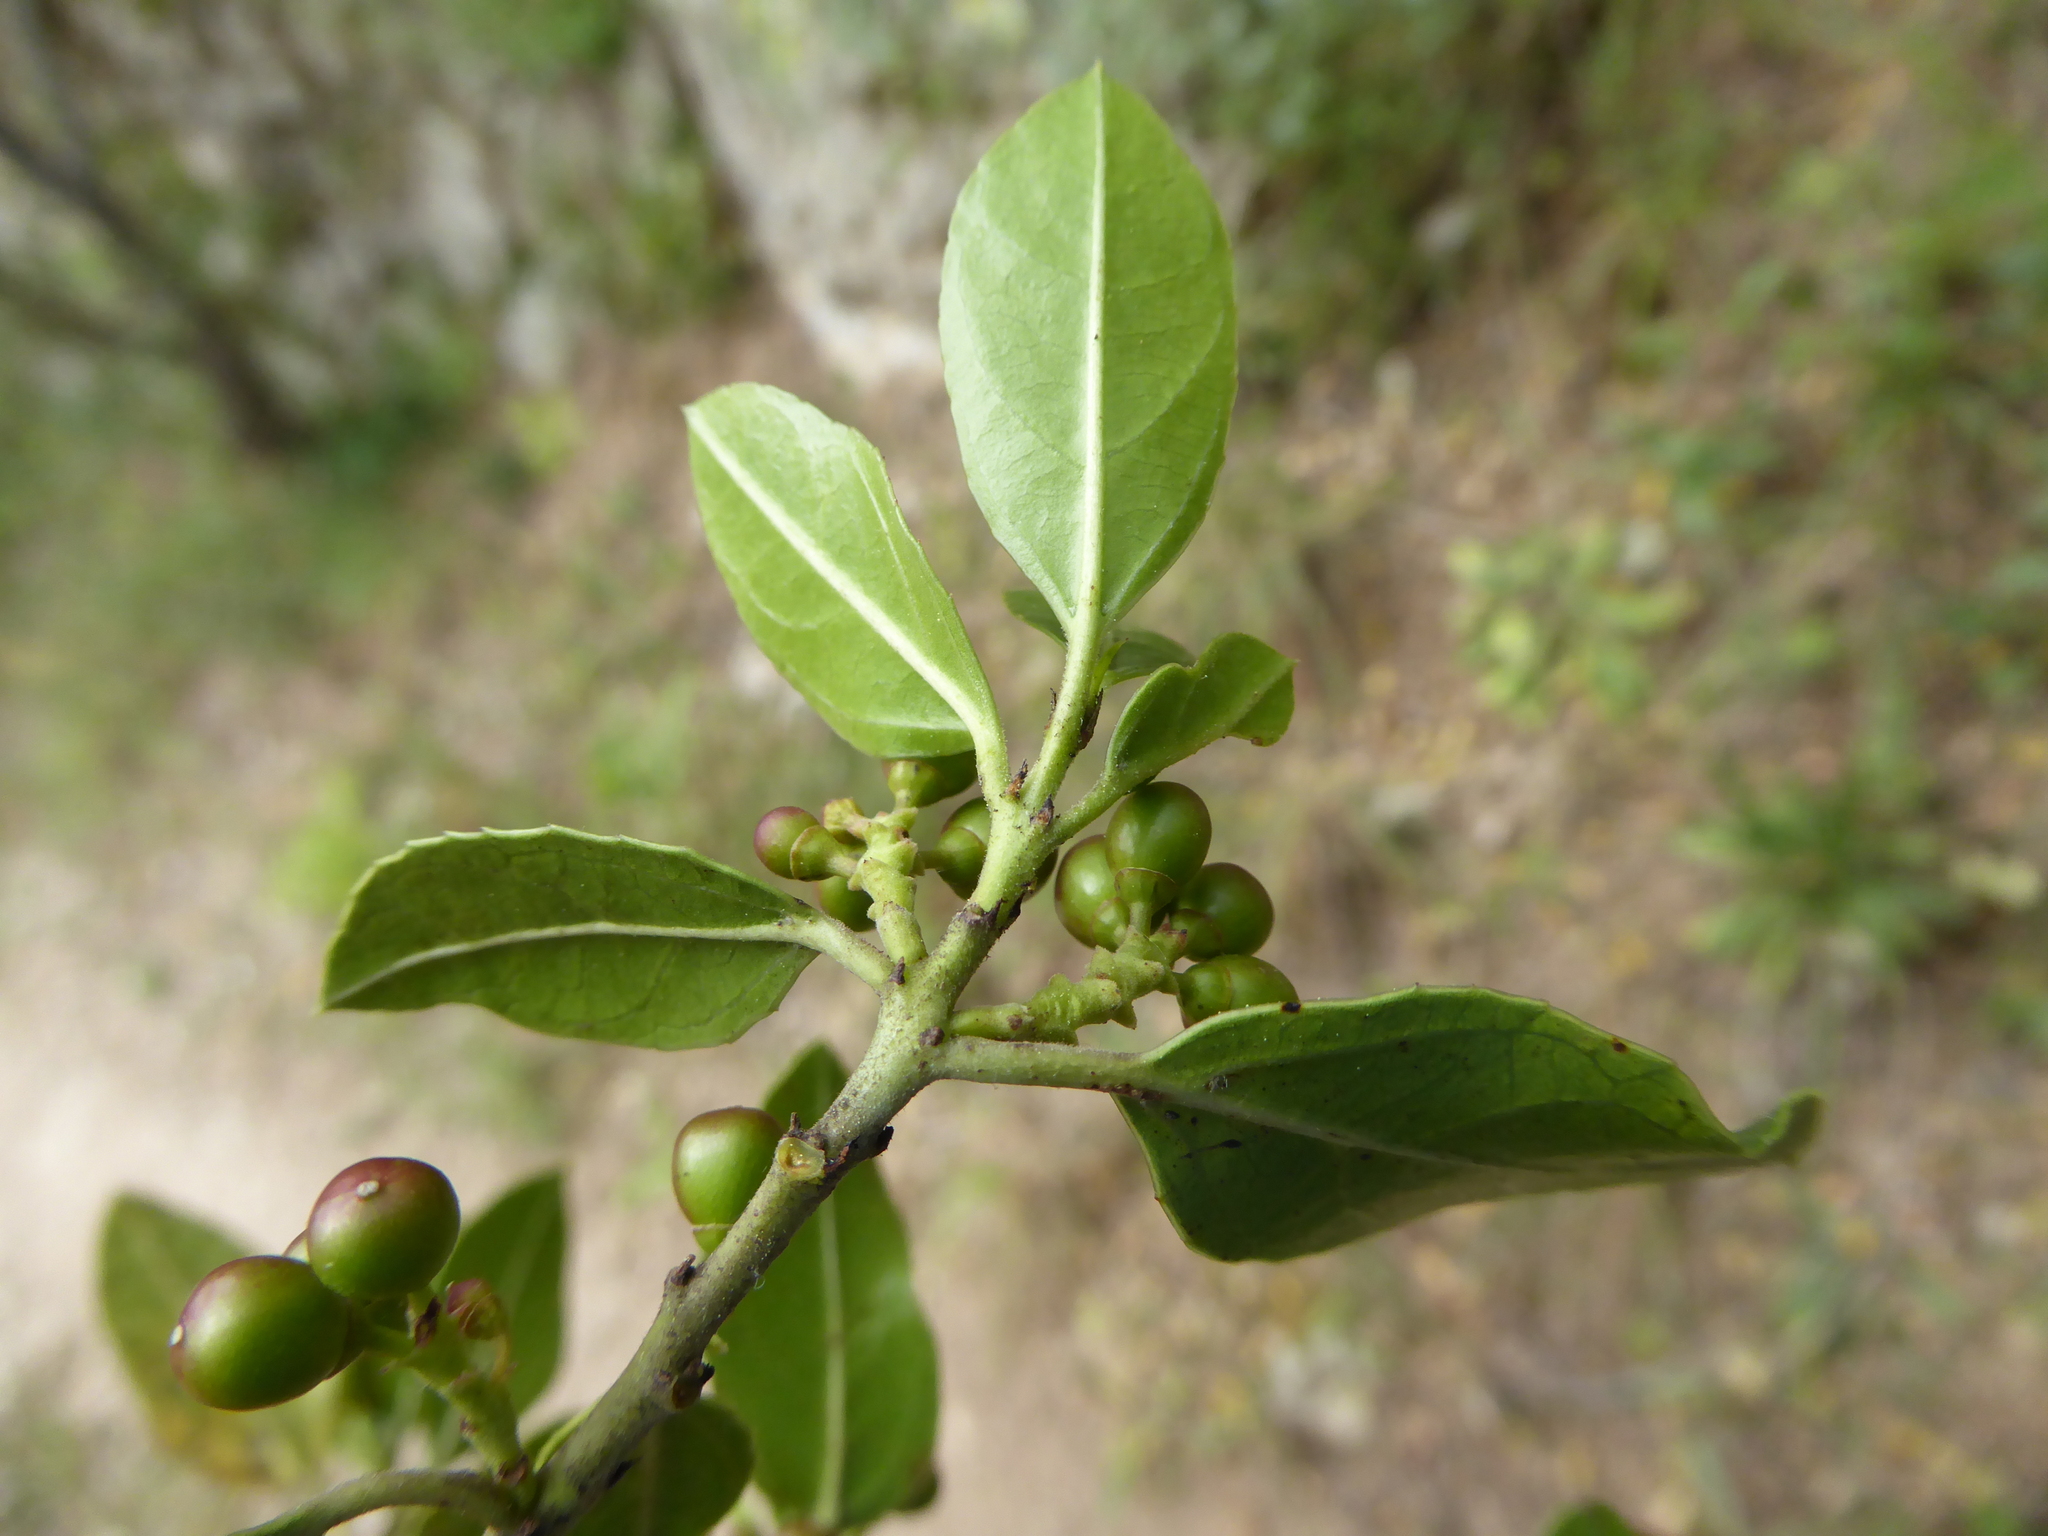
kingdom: Plantae
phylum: Tracheophyta
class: Magnoliopsida
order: Rosales
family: Rhamnaceae
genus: Rhamnus
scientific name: Rhamnus alaternus
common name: Mediterranean buckthorn
